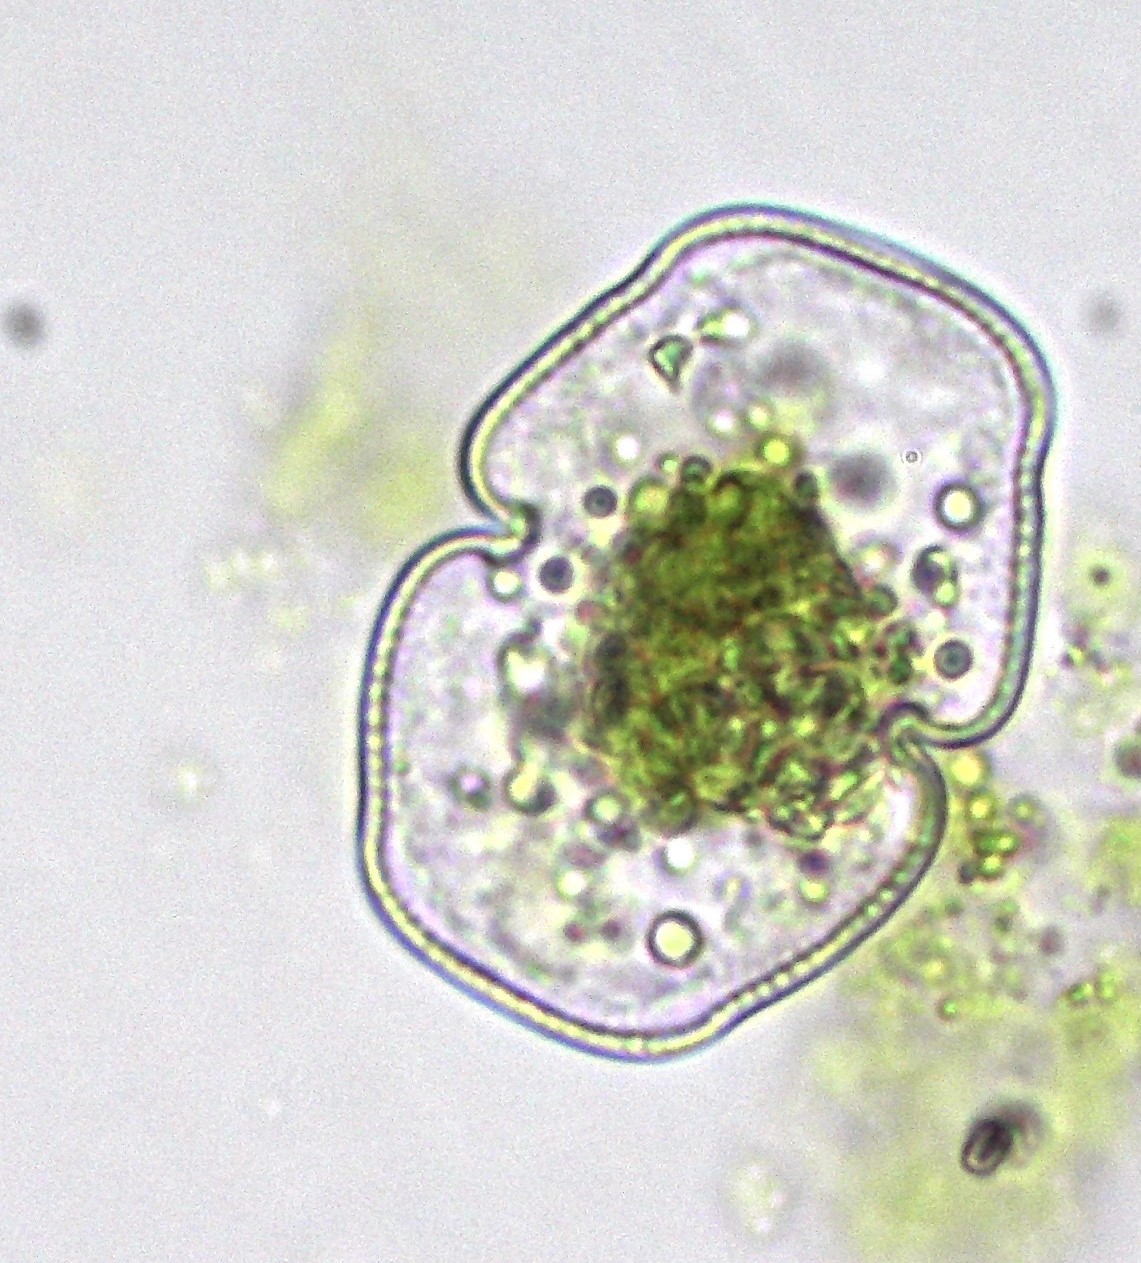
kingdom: Plantae
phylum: Charophyta
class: Conjugatophyceae
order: Desmidiales
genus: Cosmarium
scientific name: Cosmarium holmiense
